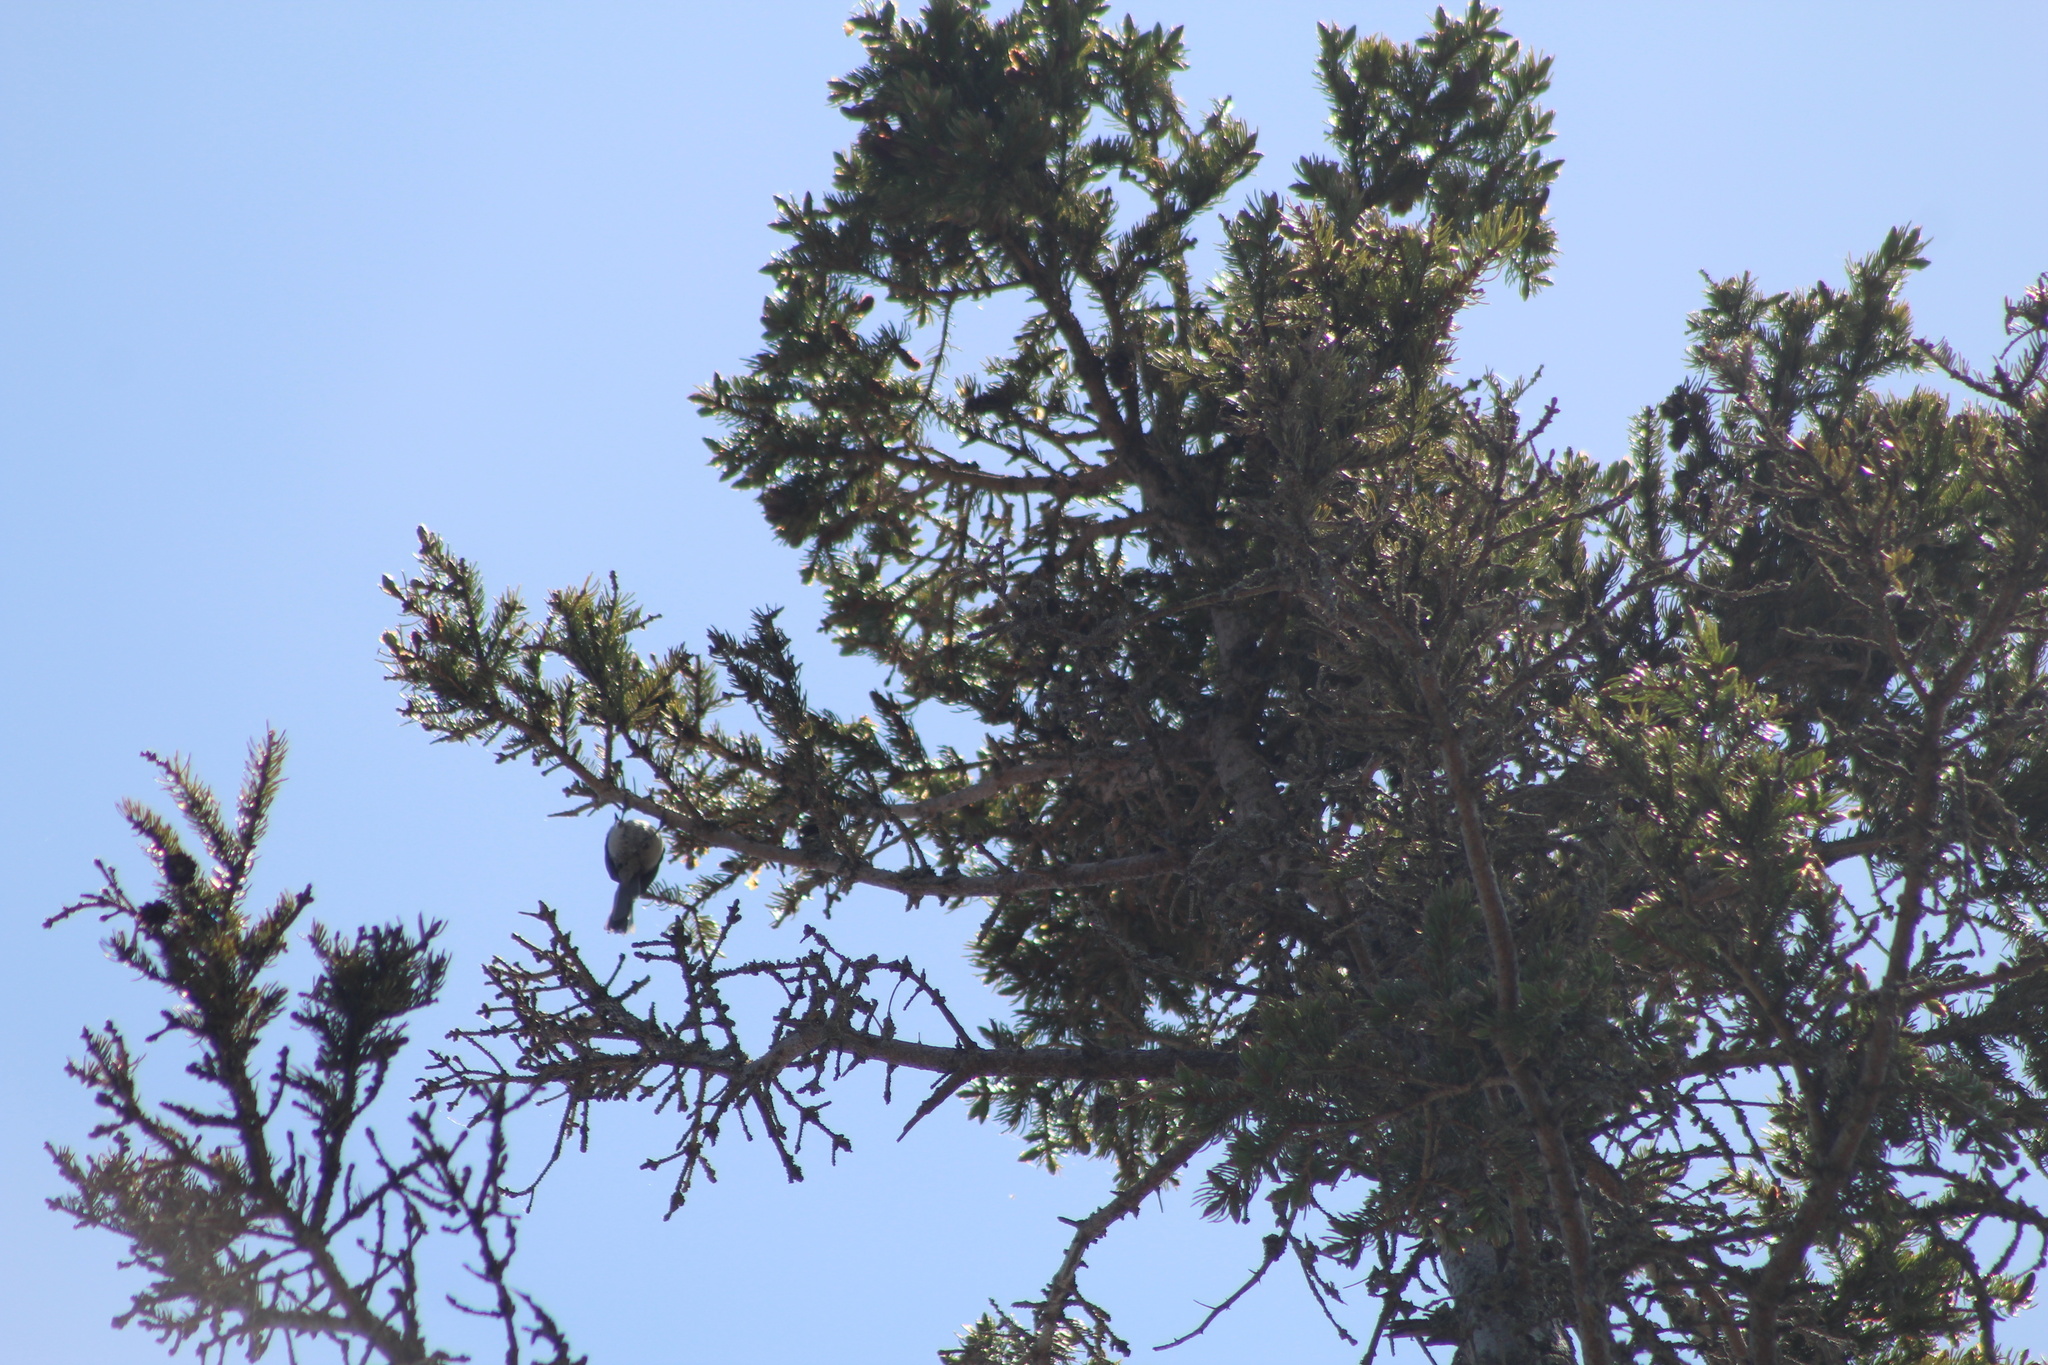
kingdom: Animalia
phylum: Chordata
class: Aves
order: Passeriformes
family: Paridae
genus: Poecile
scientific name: Poecile atricapillus
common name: Black-capped chickadee
